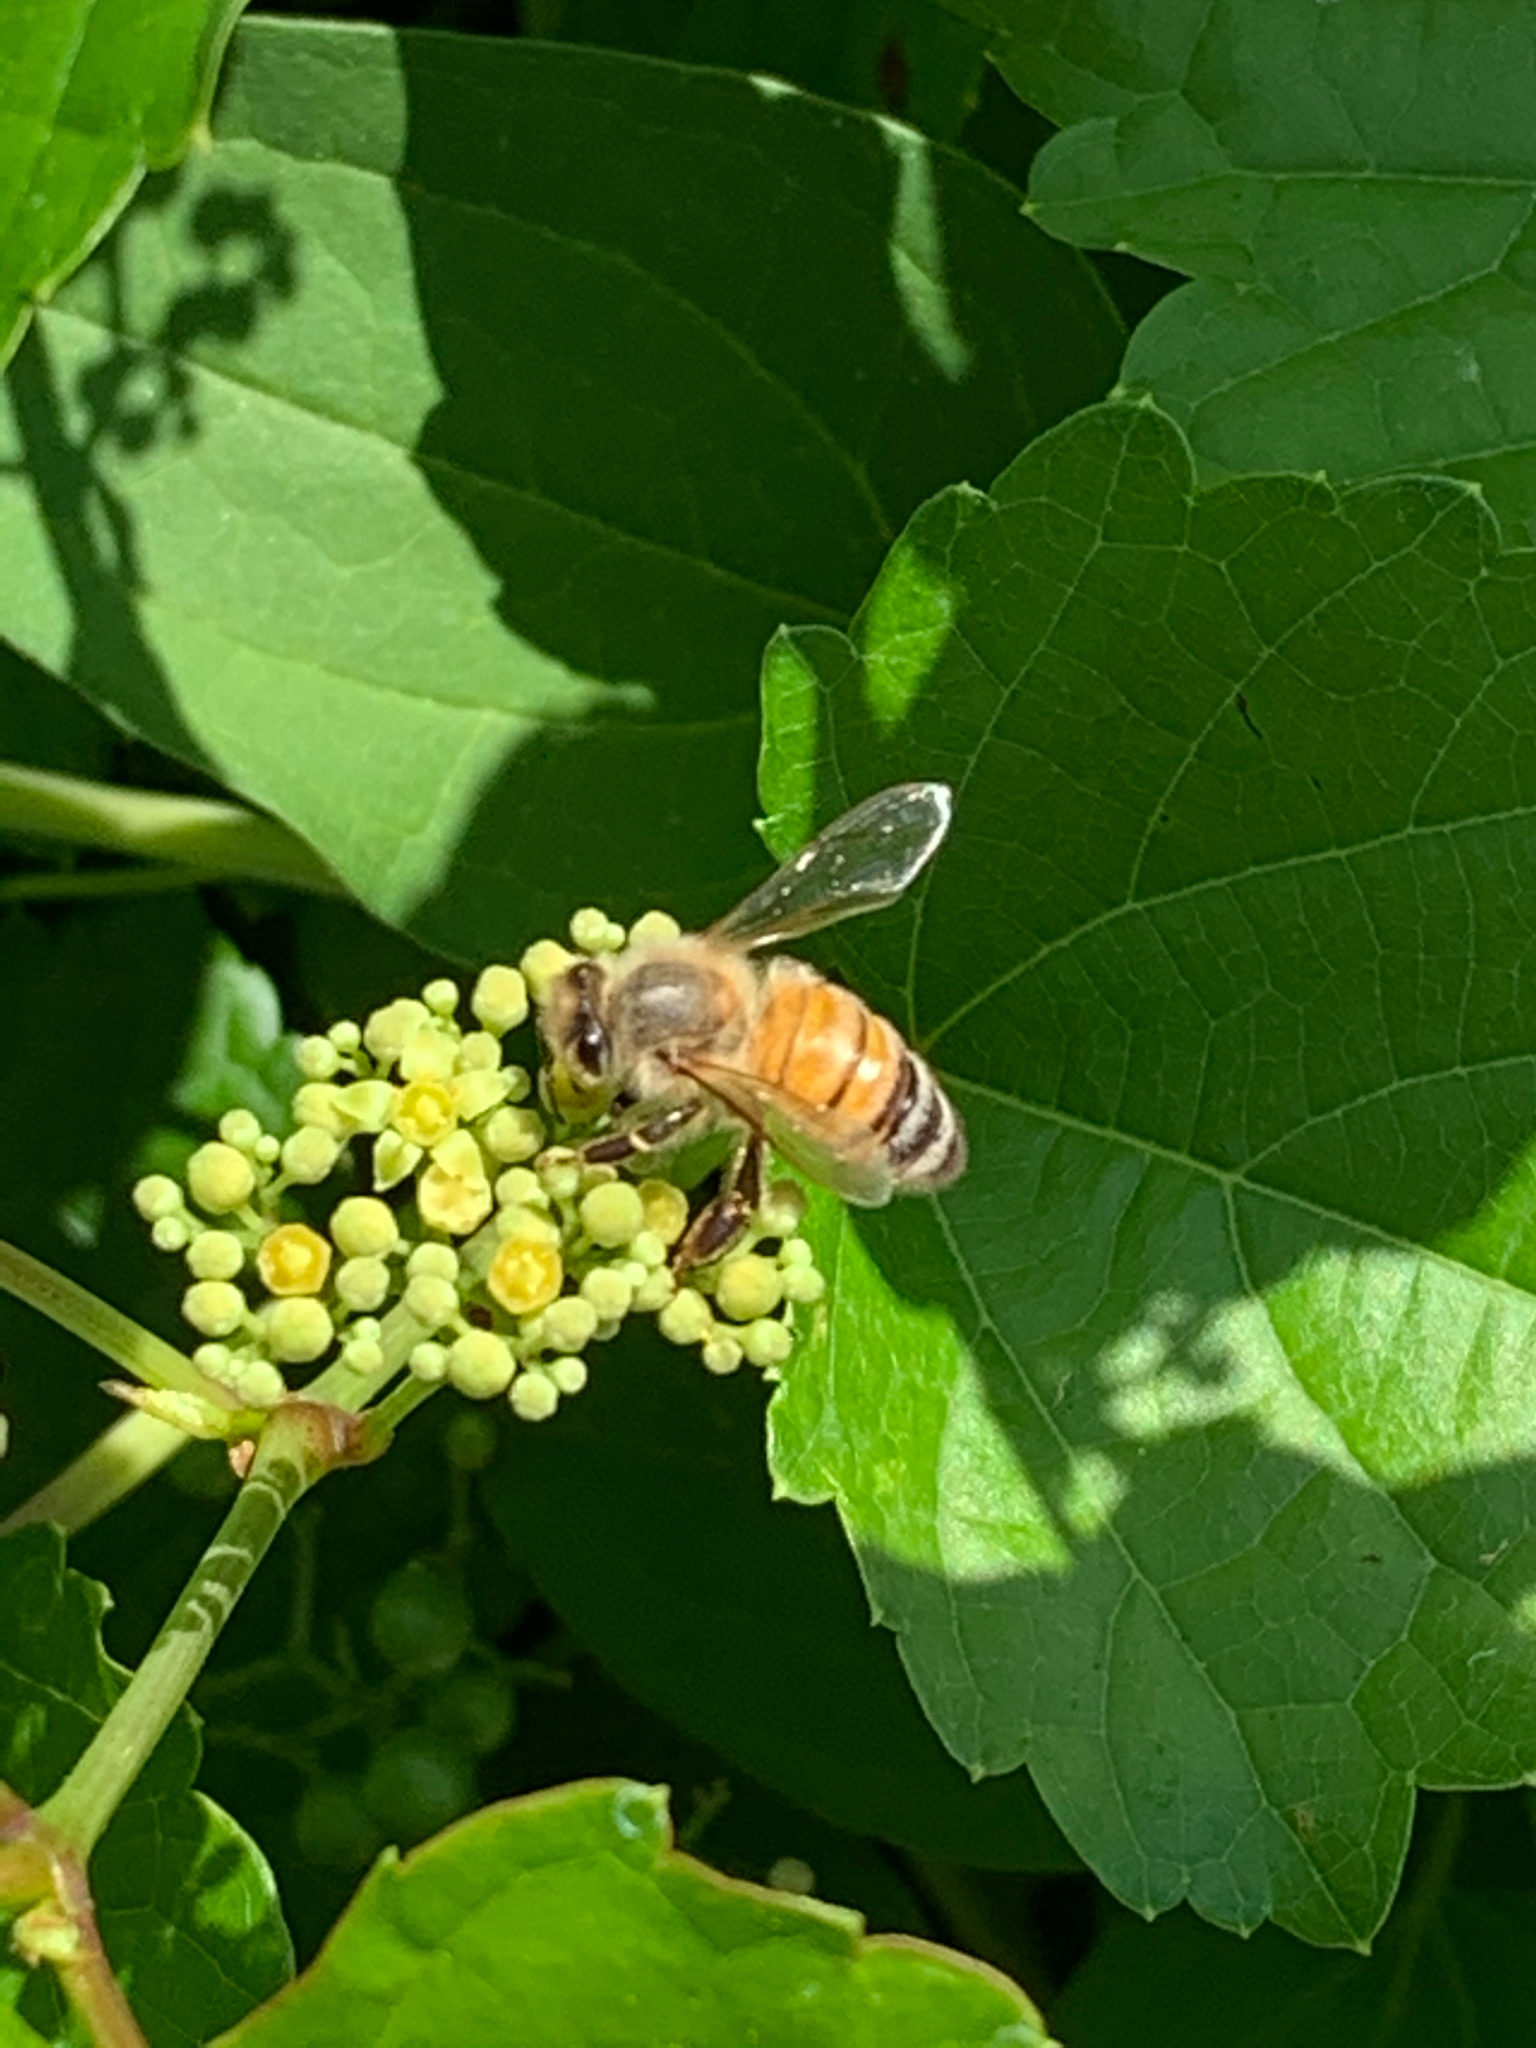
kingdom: Animalia
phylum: Arthropoda
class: Insecta
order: Hymenoptera
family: Apidae
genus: Apis
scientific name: Apis mellifera
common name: Honey bee
